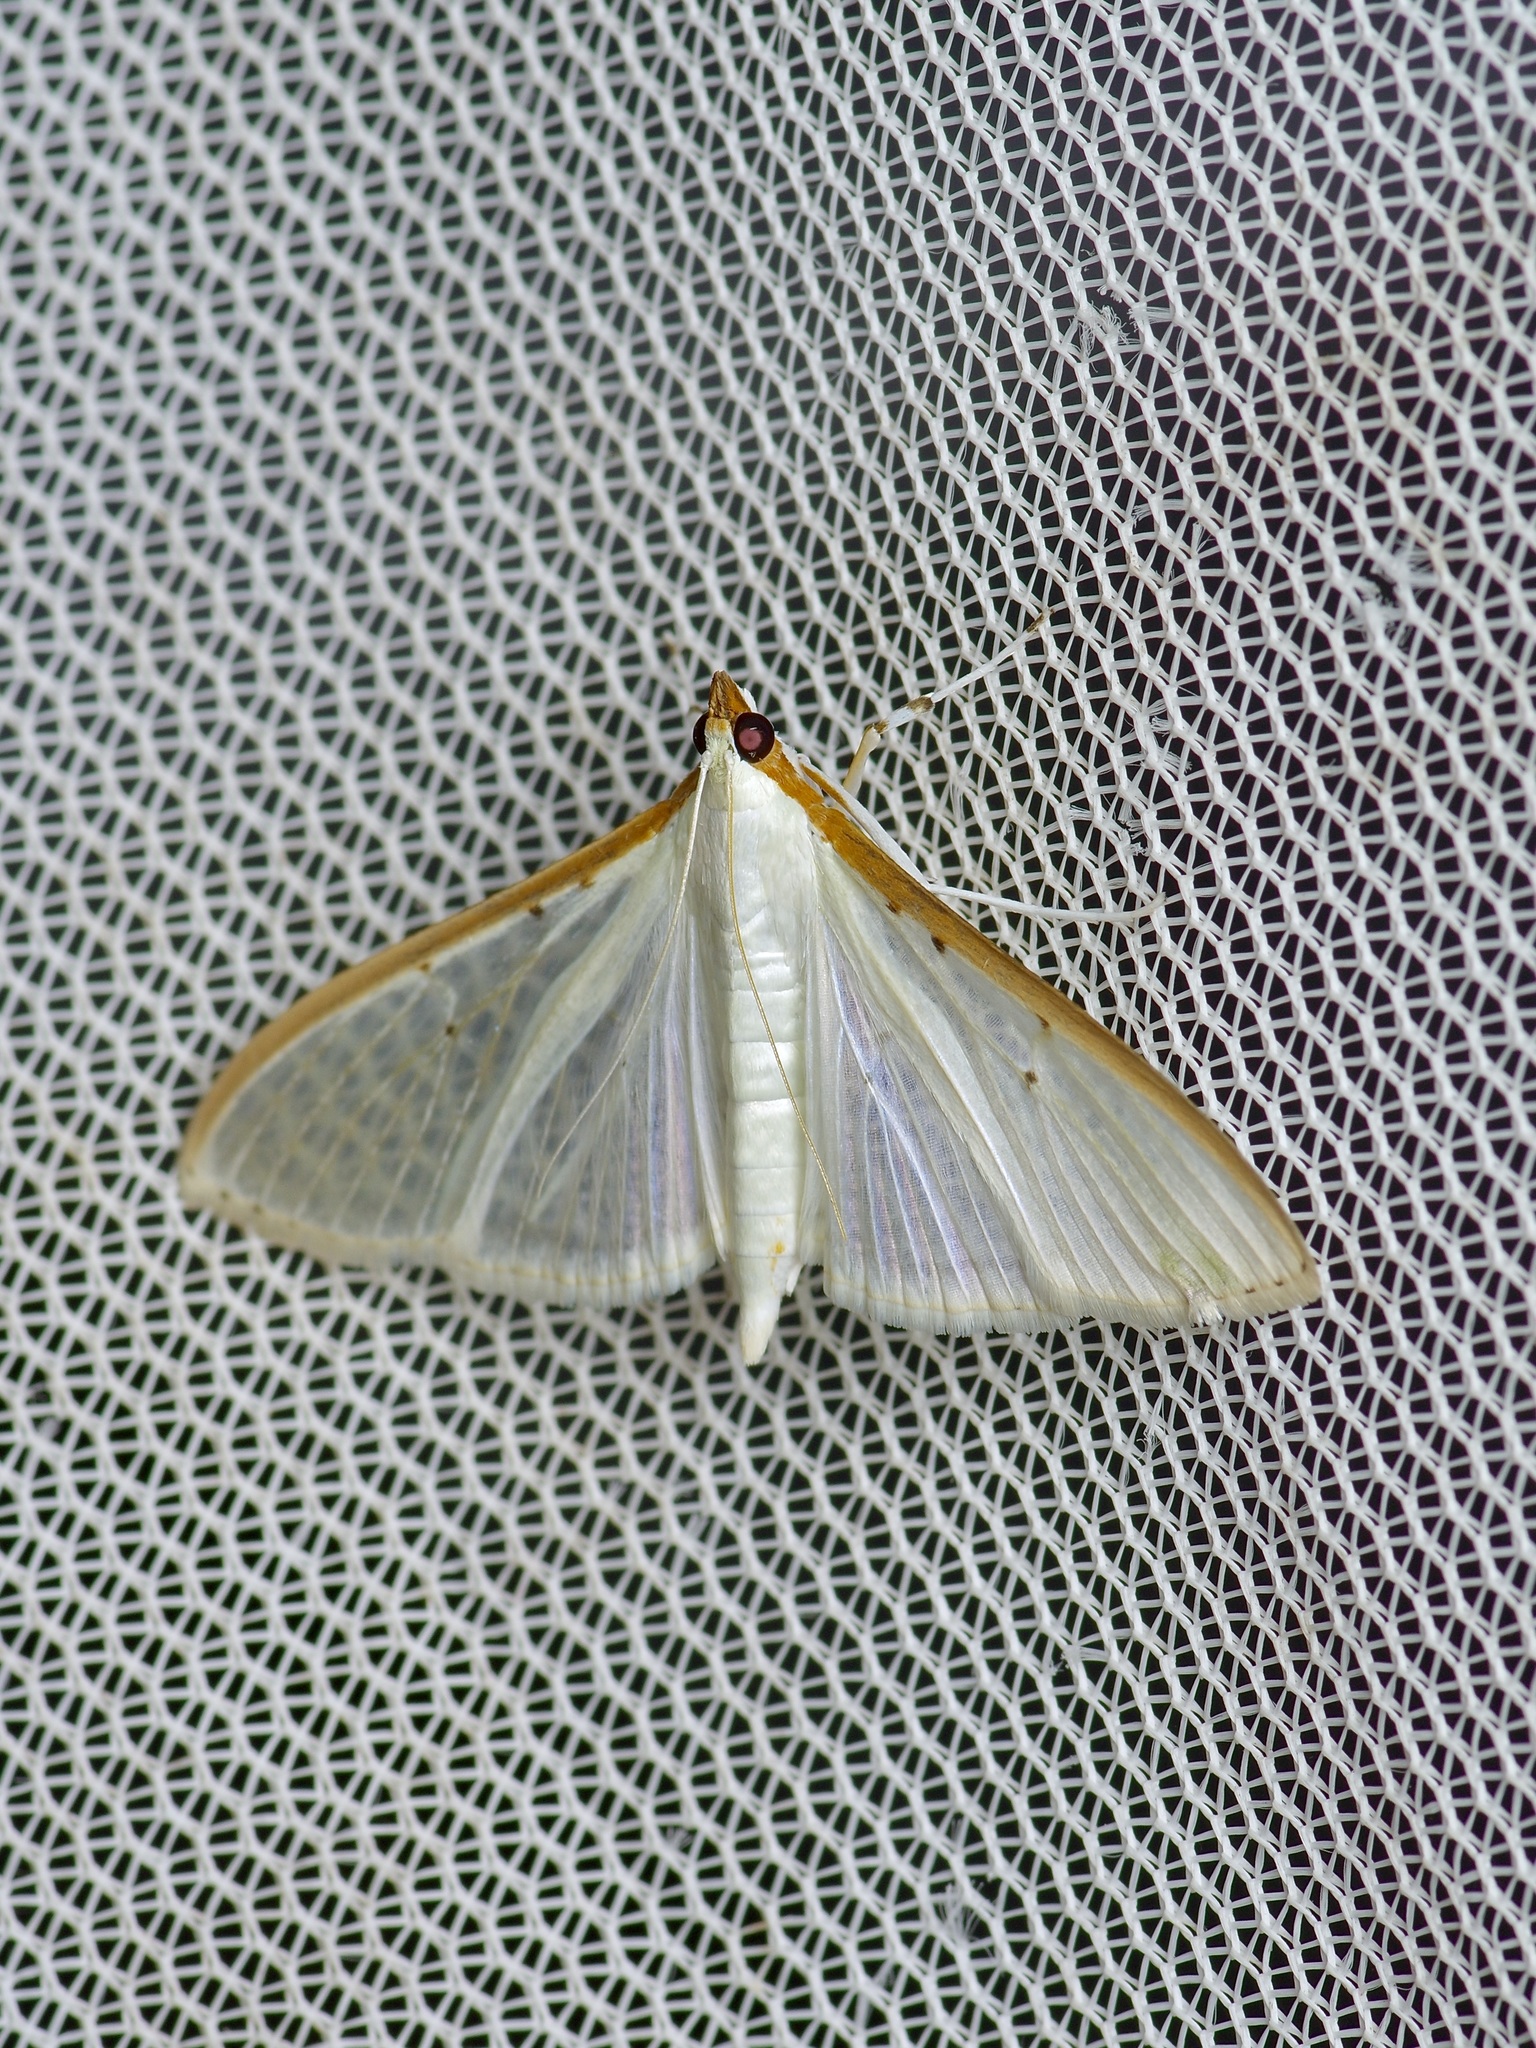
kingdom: Animalia
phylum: Arthropoda
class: Insecta
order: Lepidoptera
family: Crambidae
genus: Palpita
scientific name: Palpita quadristigmalis
